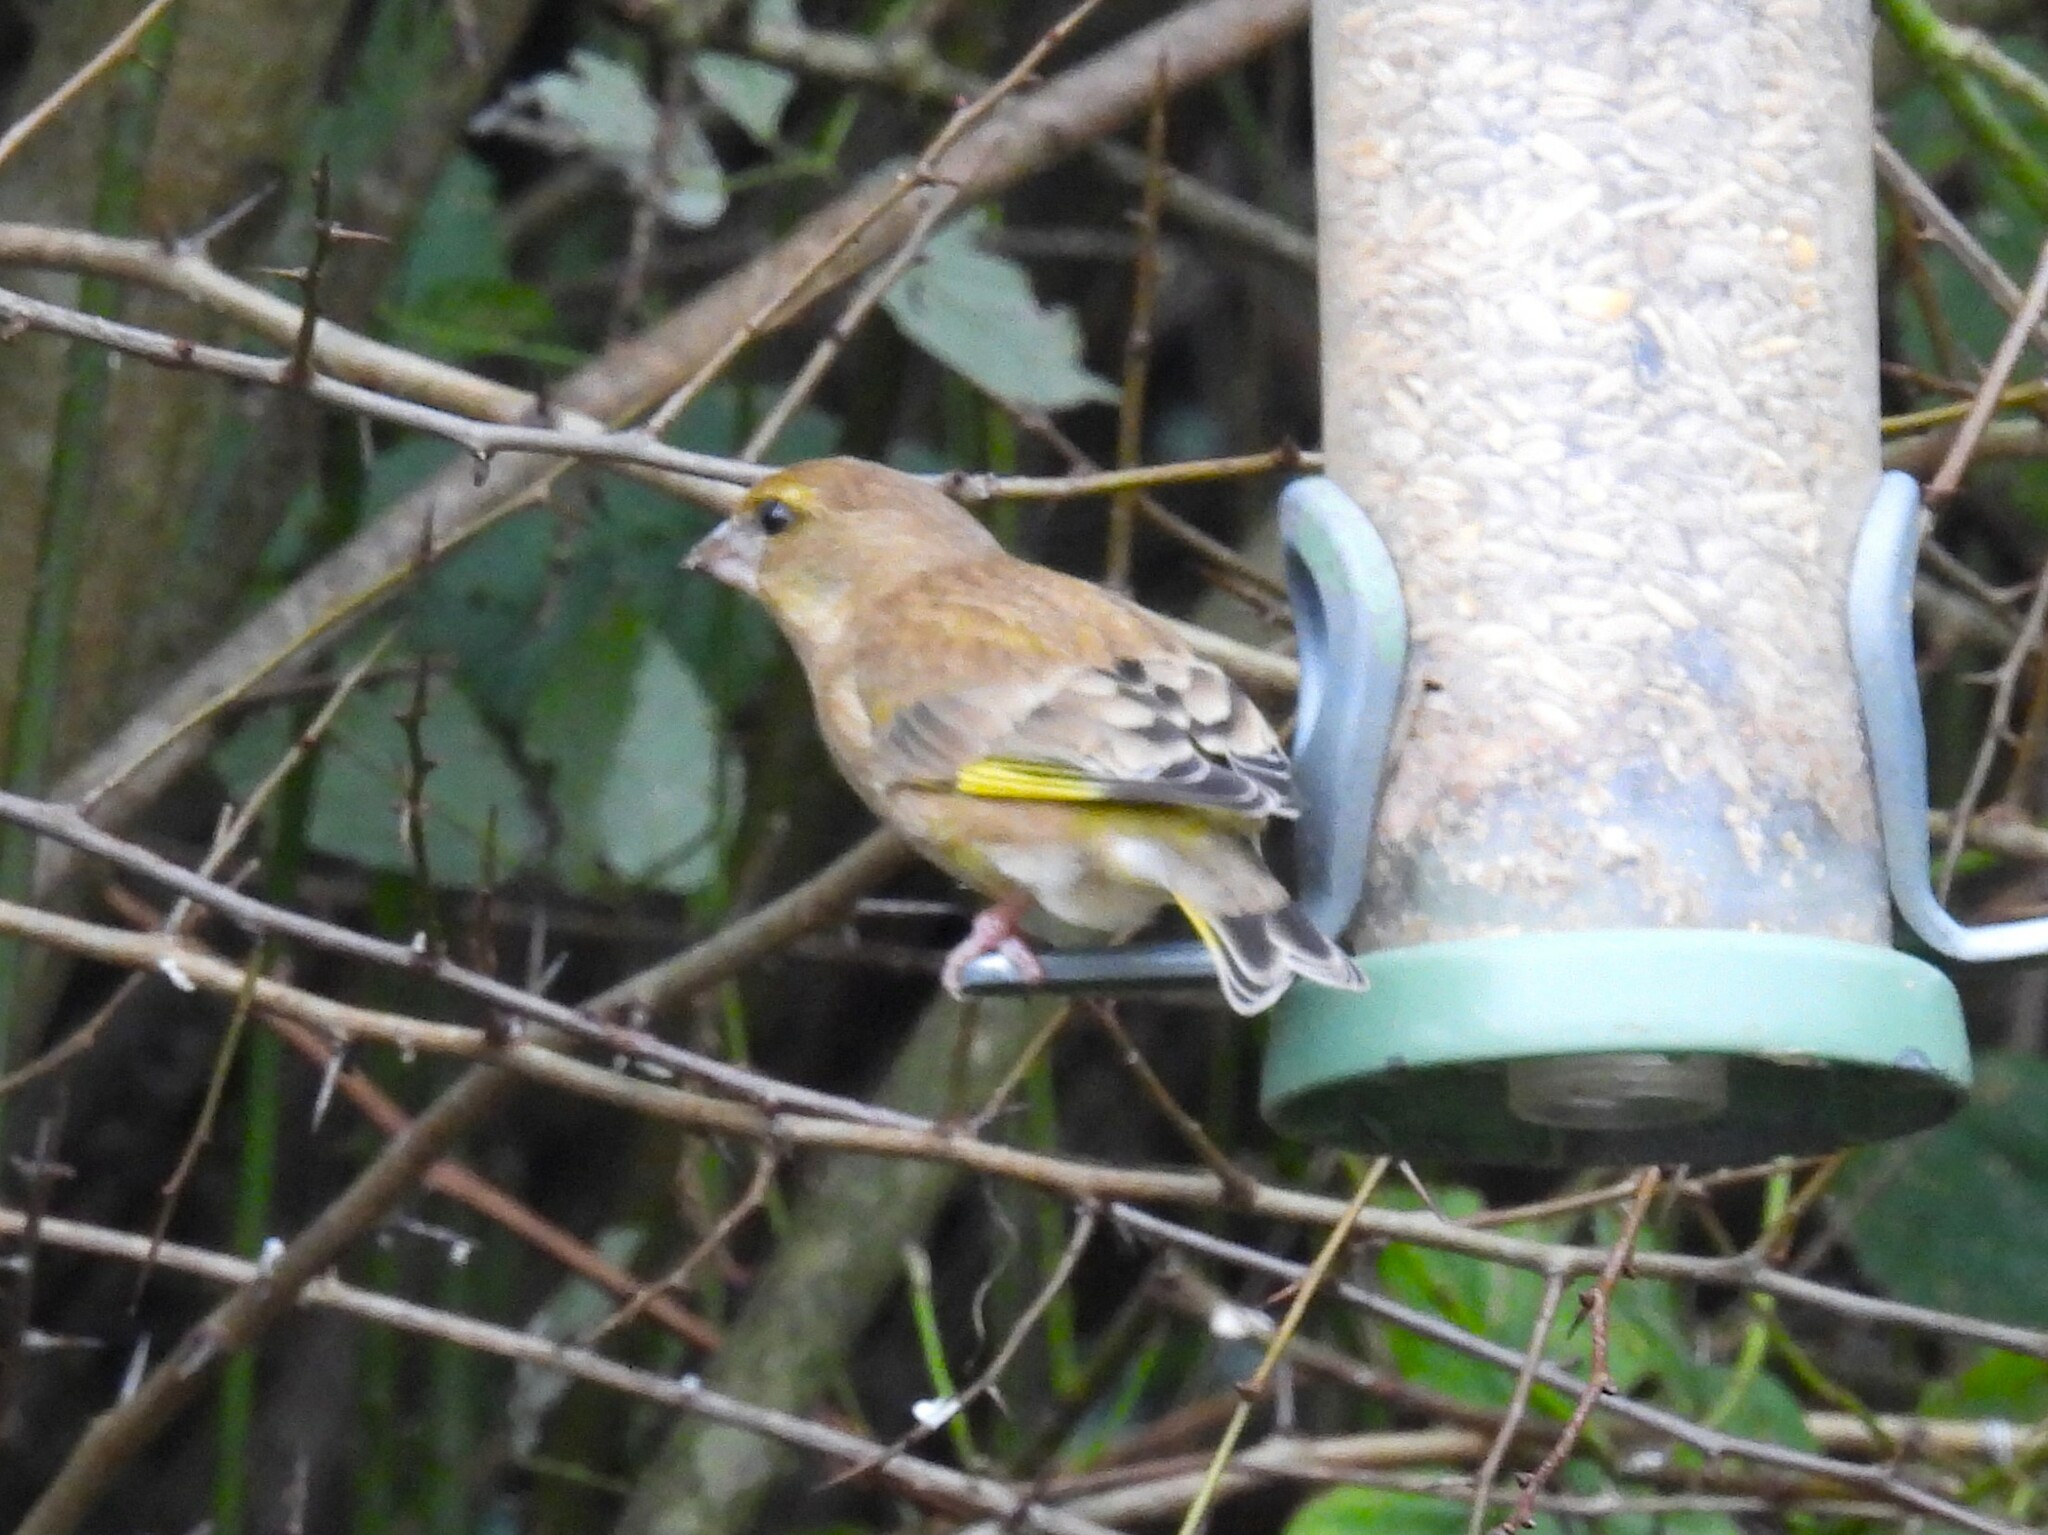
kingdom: Plantae
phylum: Tracheophyta
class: Liliopsida
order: Poales
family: Poaceae
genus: Chloris
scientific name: Chloris chloris
